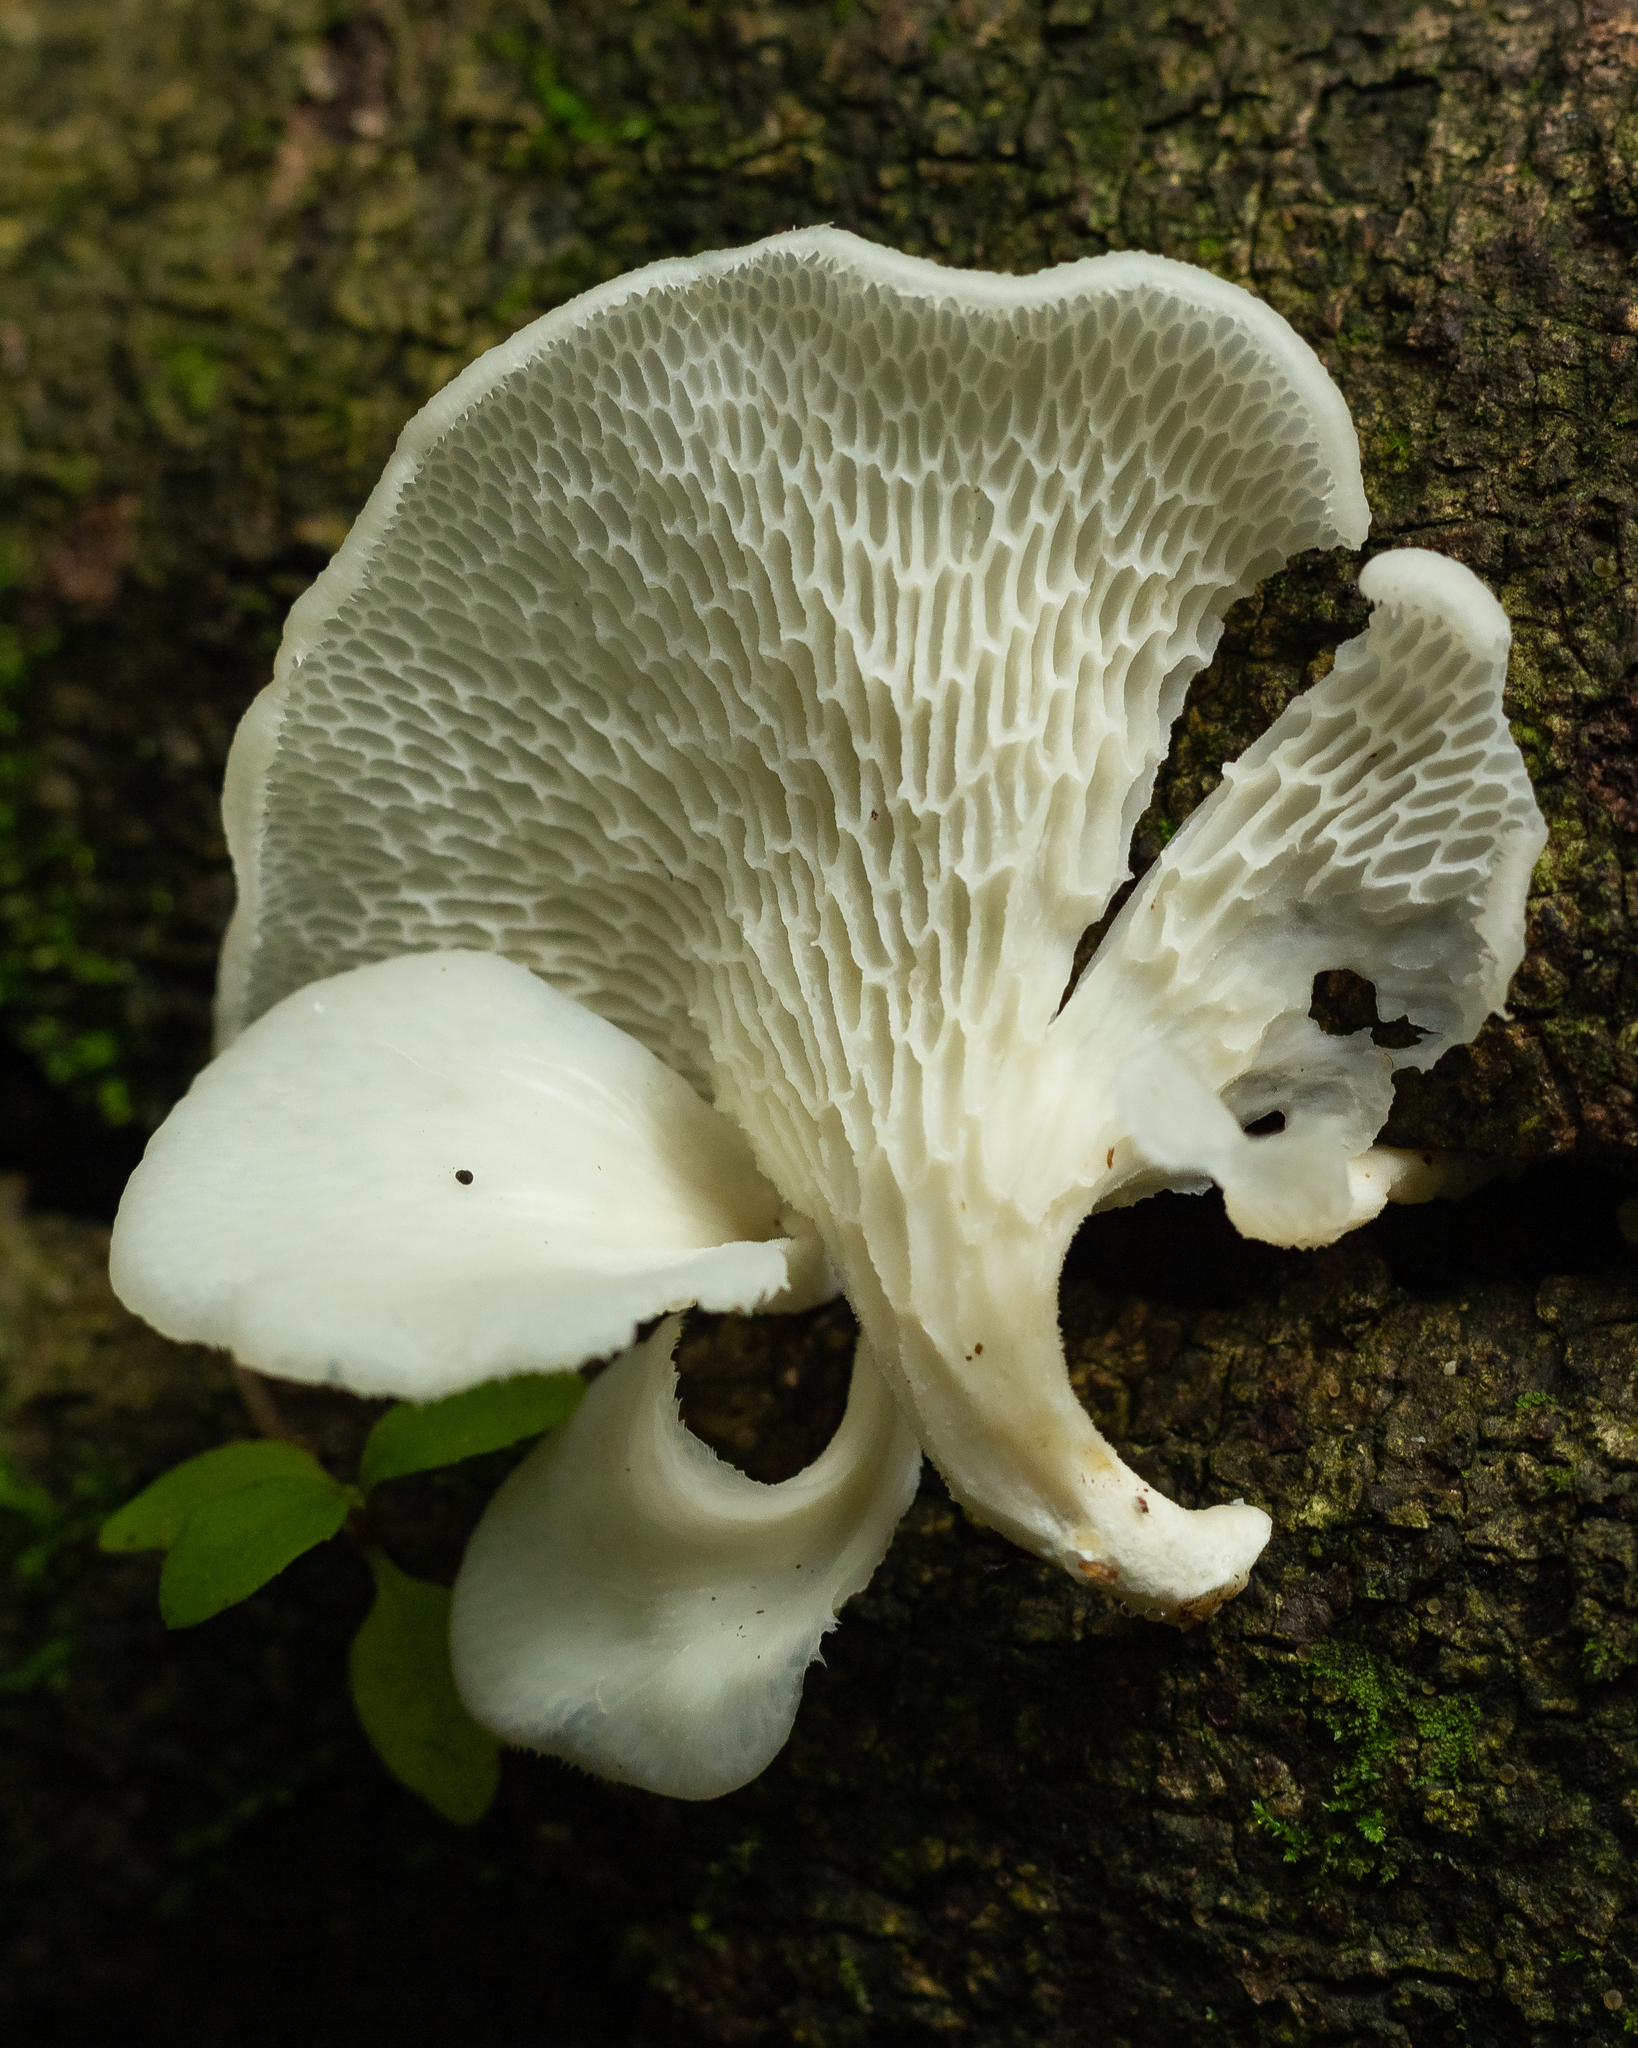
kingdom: Fungi
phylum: Basidiomycota
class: Agaricomycetes
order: Polyporales
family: Polyporaceae
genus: Favolus
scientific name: Favolus tenuiculus
